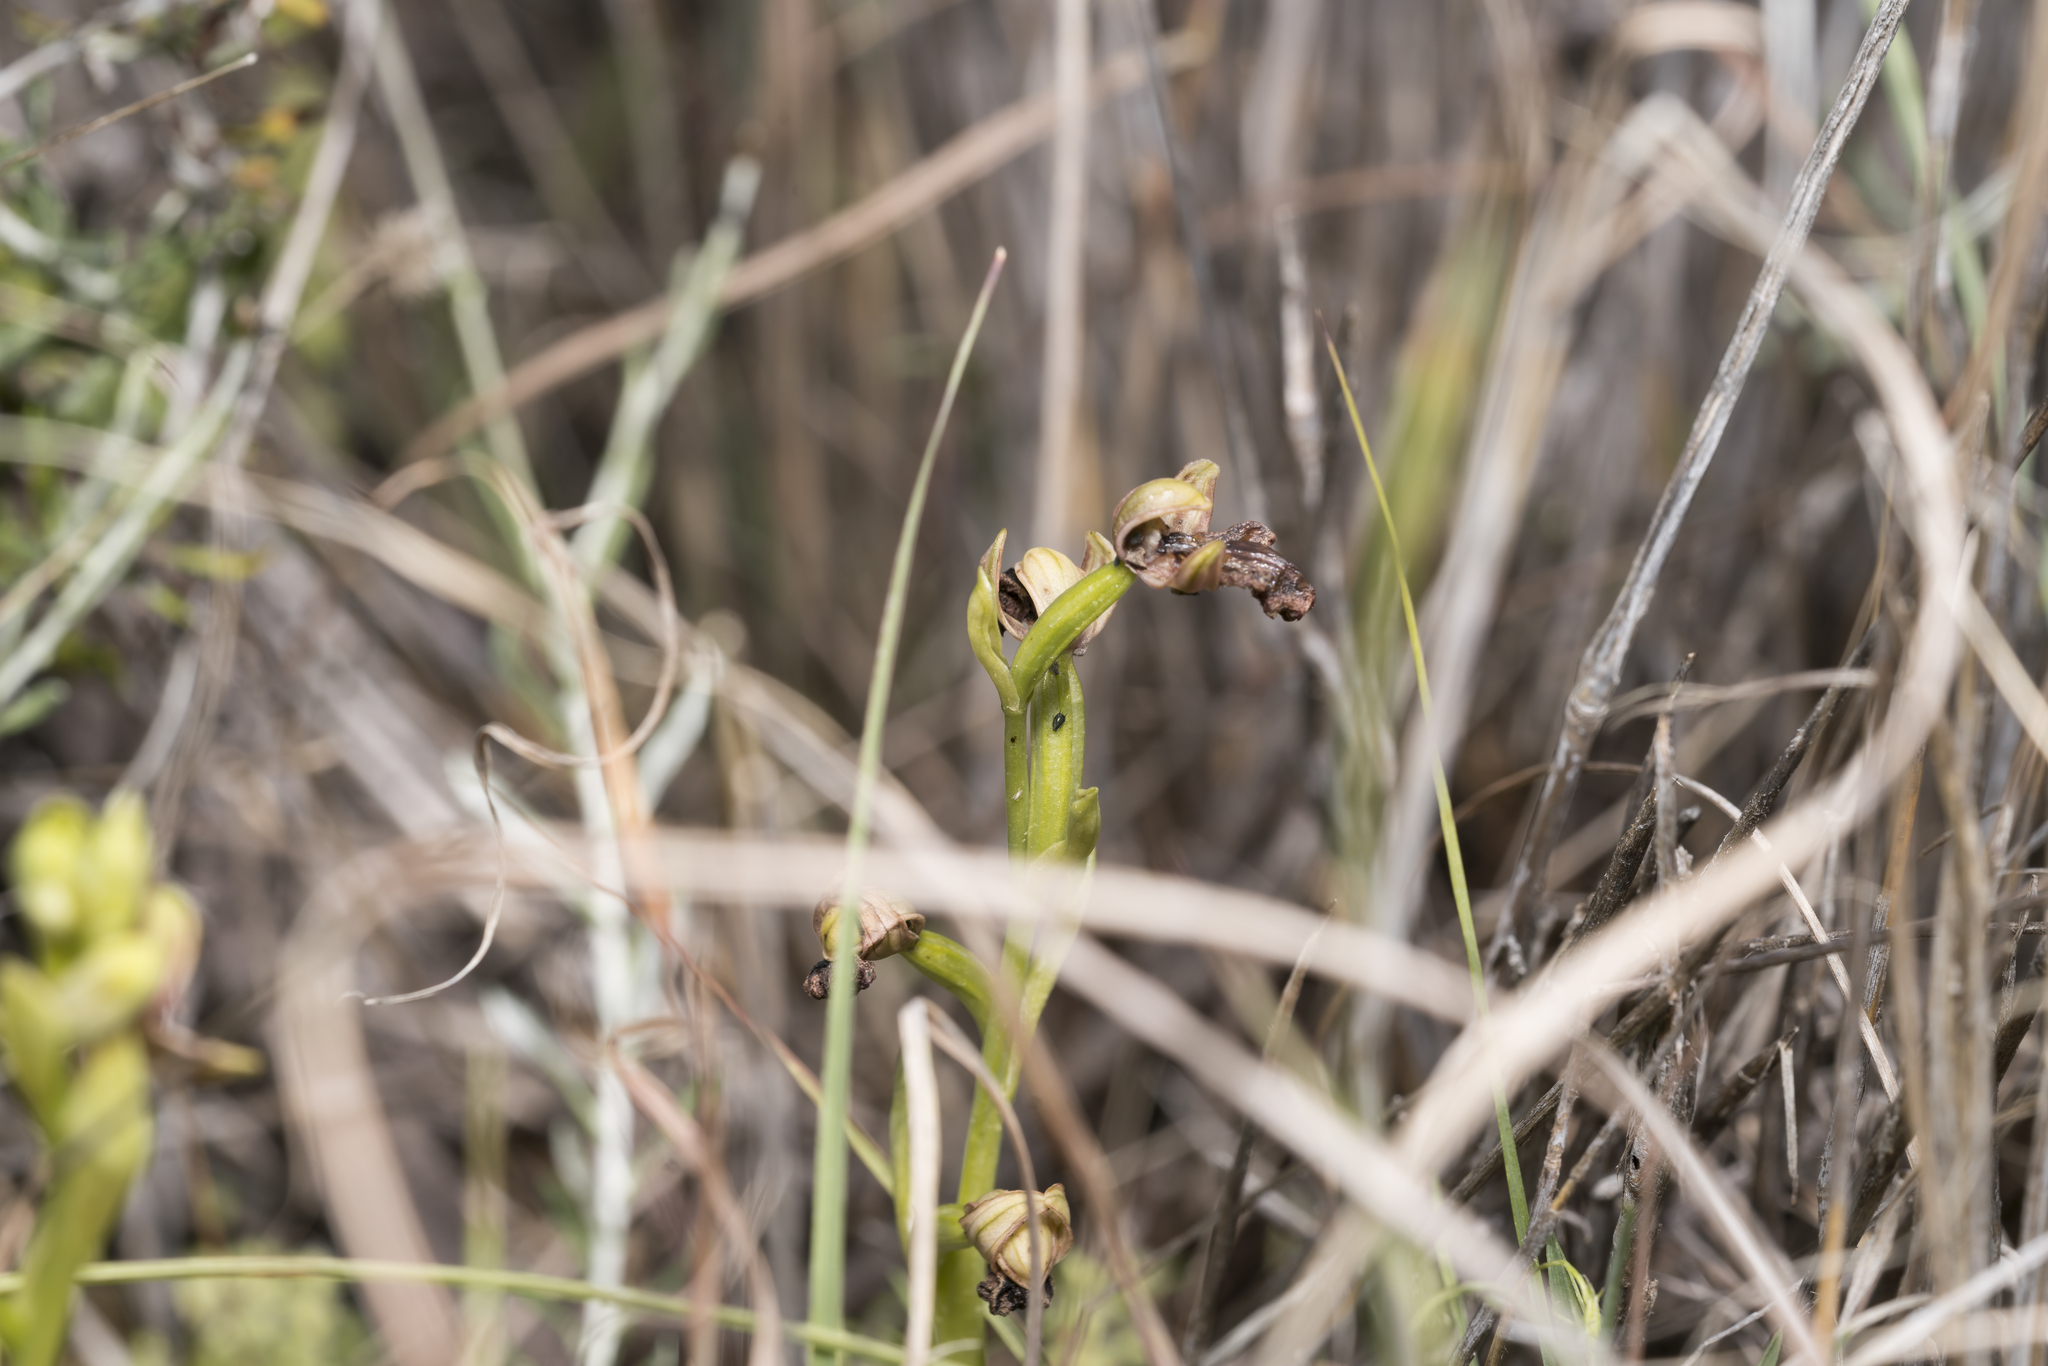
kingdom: Plantae
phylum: Tracheophyta
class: Liliopsida
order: Asparagales
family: Orchidaceae
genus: Ophrys
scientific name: Ophrys speculum
